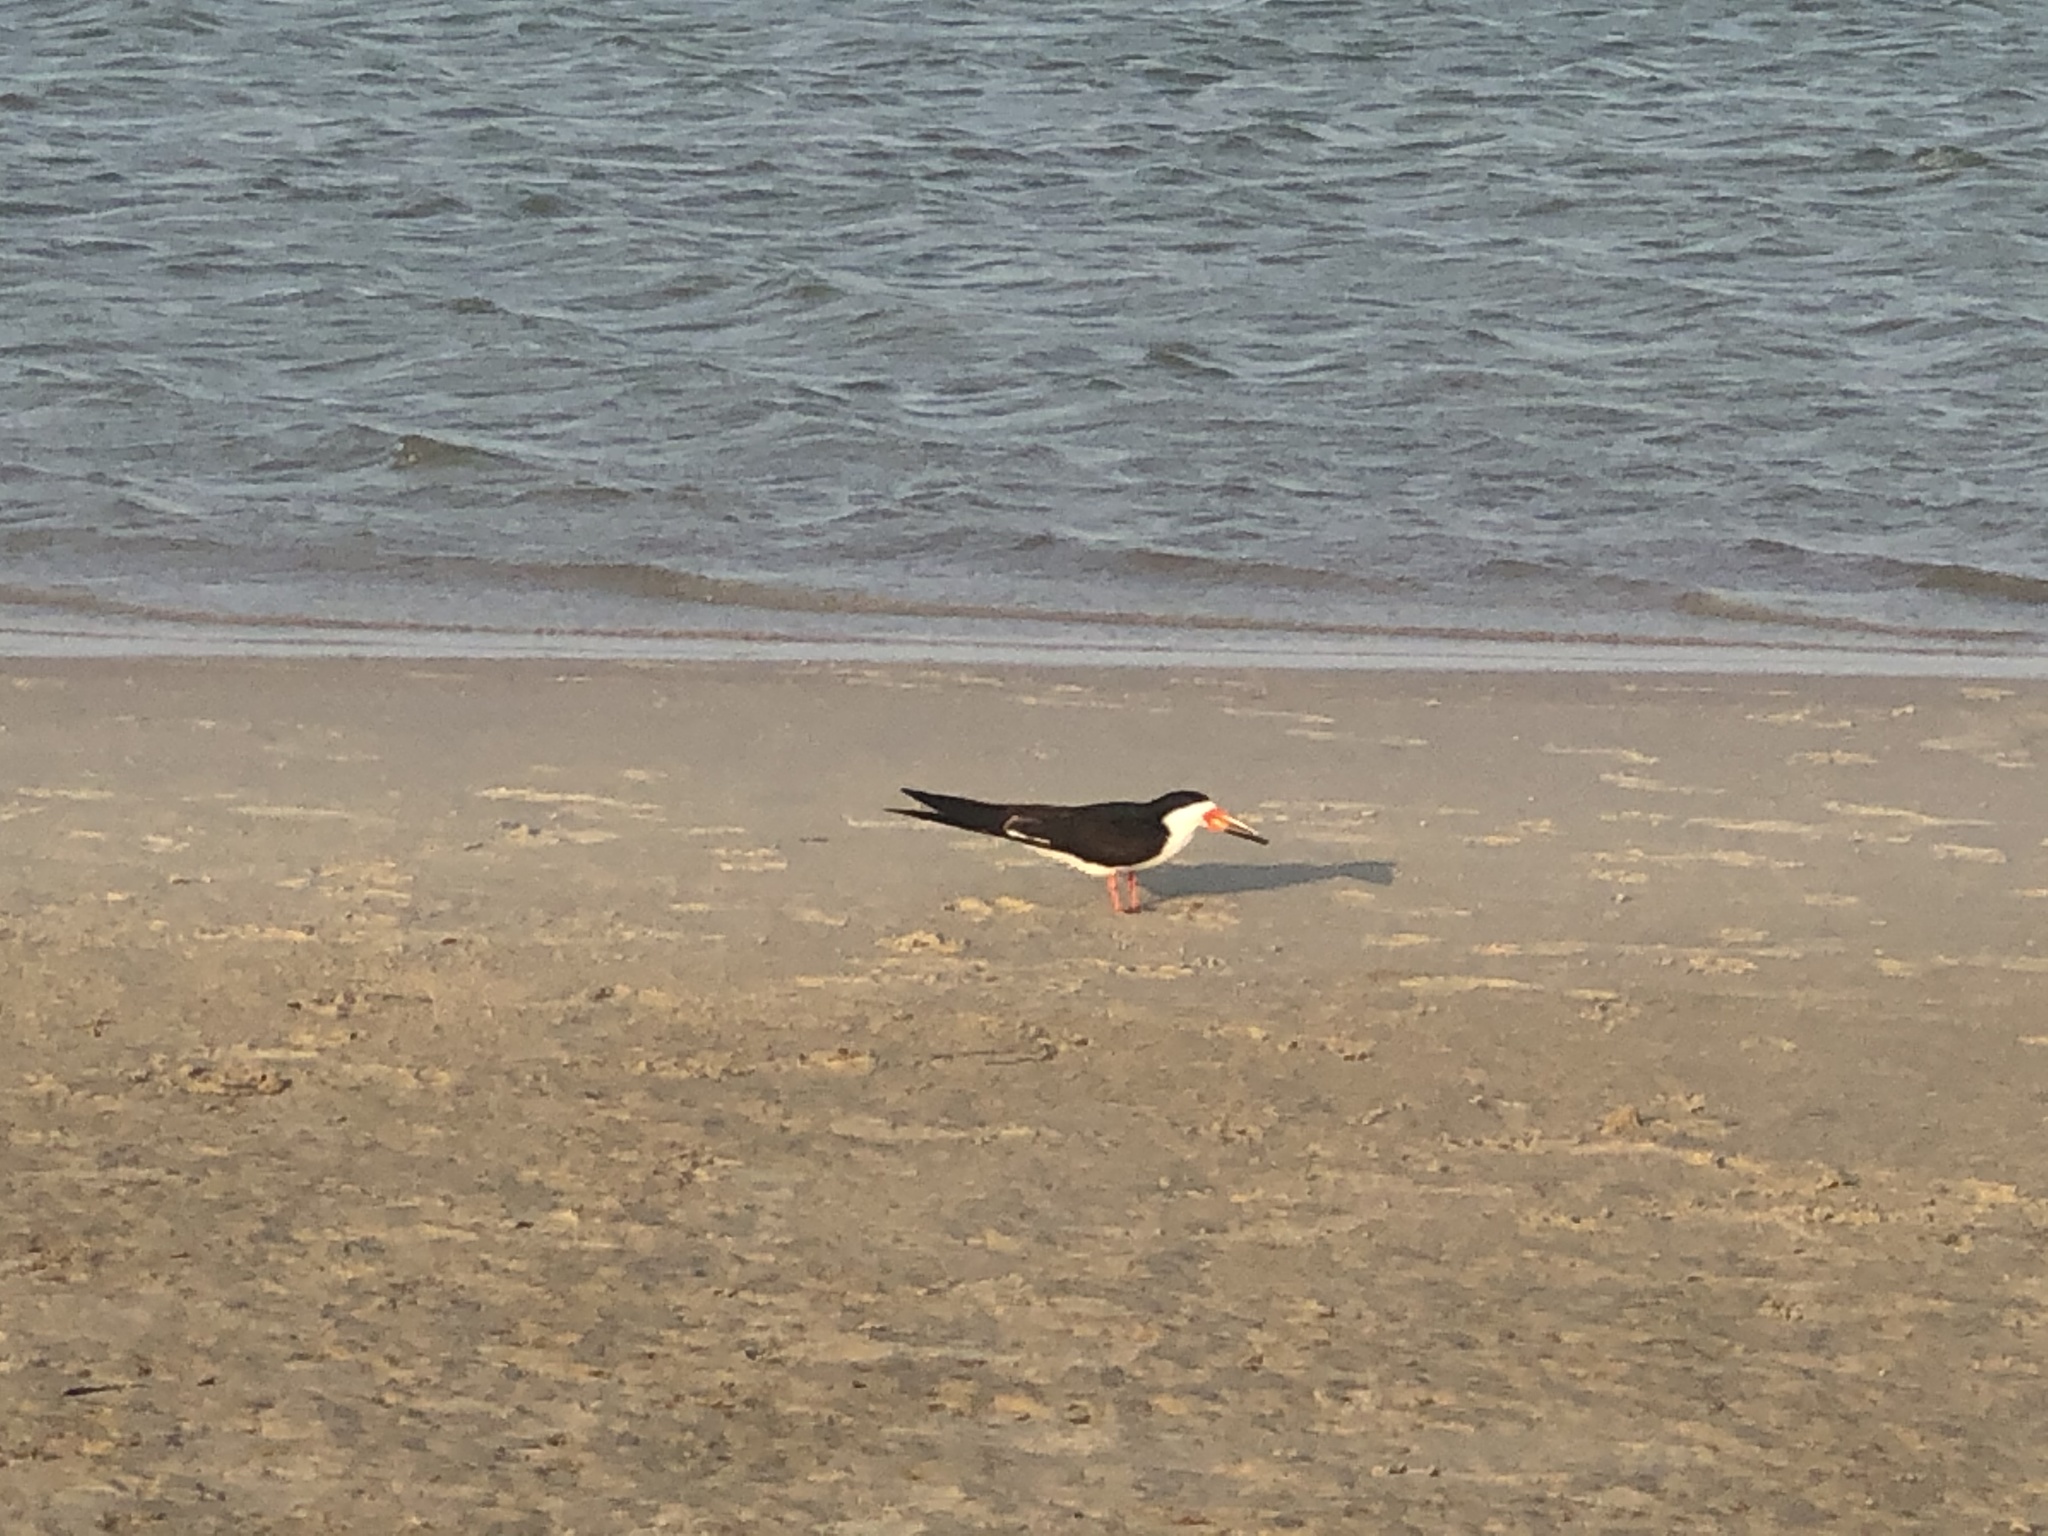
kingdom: Animalia
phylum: Chordata
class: Aves
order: Charadriiformes
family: Laridae
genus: Rynchops
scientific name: Rynchops niger
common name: Black skimmer
